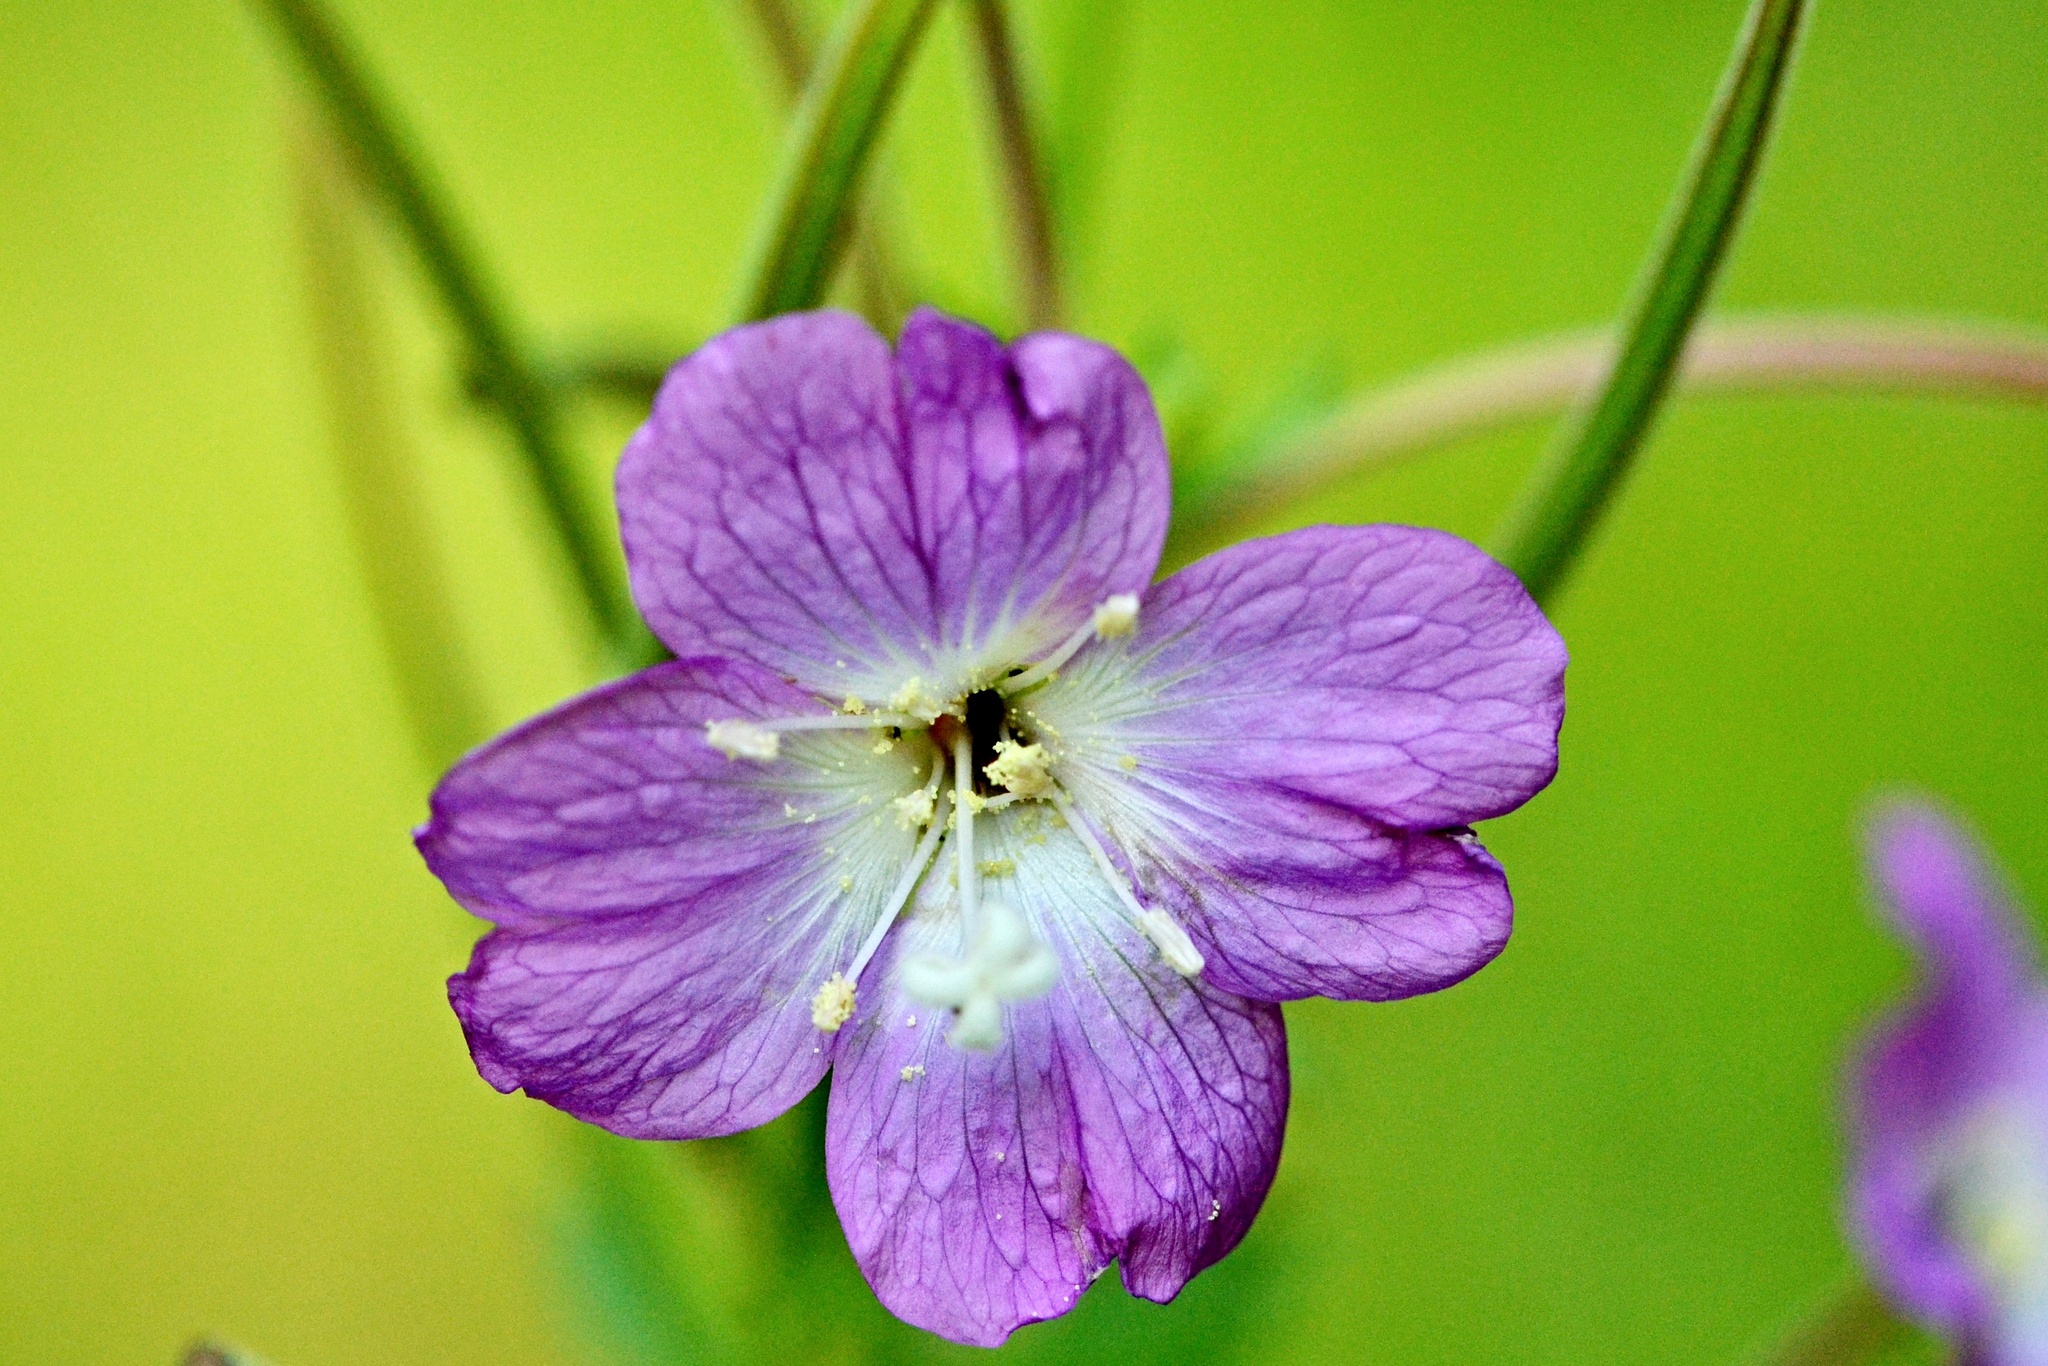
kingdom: Plantae
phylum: Tracheophyta
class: Magnoliopsida
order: Myrtales
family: Onagraceae
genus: Epilobium
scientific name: Epilobium hirsutum
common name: Great willowherb
